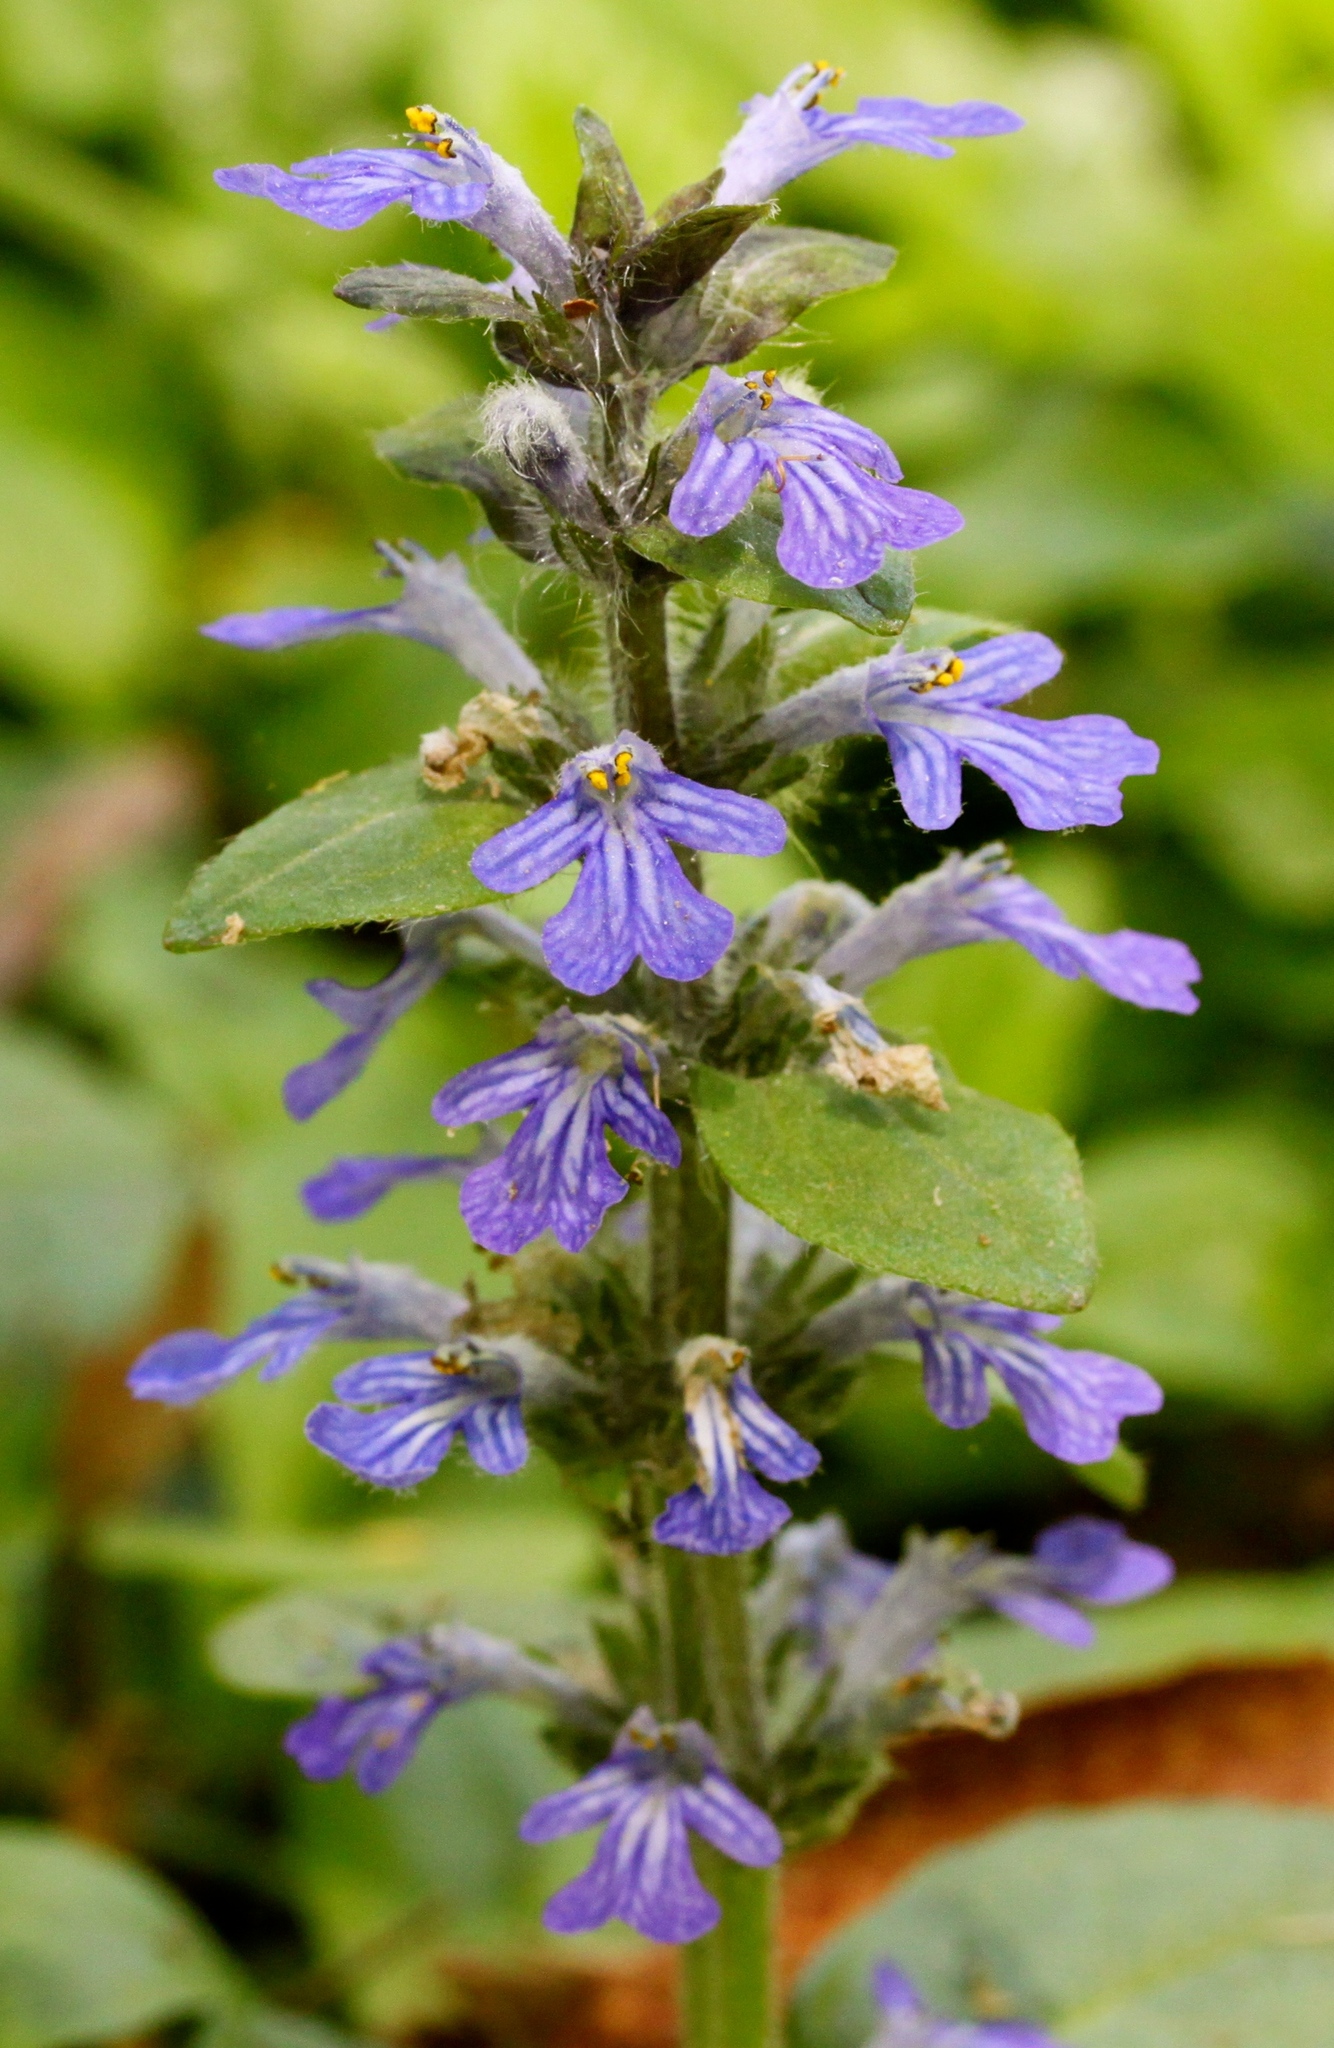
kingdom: Plantae
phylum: Tracheophyta
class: Magnoliopsida
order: Lamiales
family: Lamiaceae
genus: Ajuga
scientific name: Ajuga reptans
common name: Bugle
